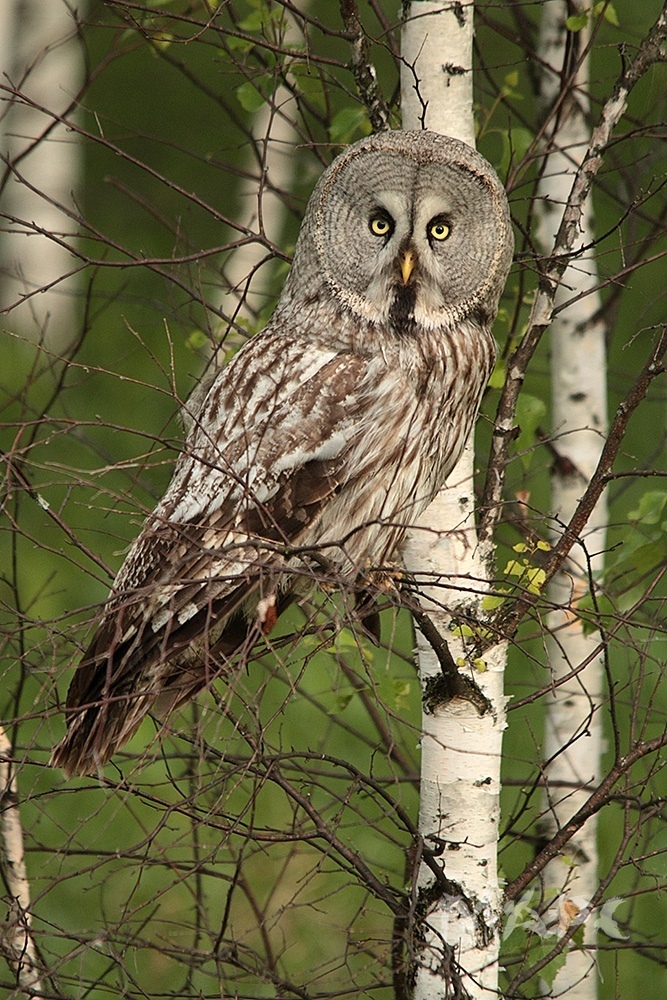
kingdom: Animalia
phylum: Chordata
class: Aves
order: Strigiformes
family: Strigidae
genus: Strix
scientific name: Strix nebulosa
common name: Great grey owl
